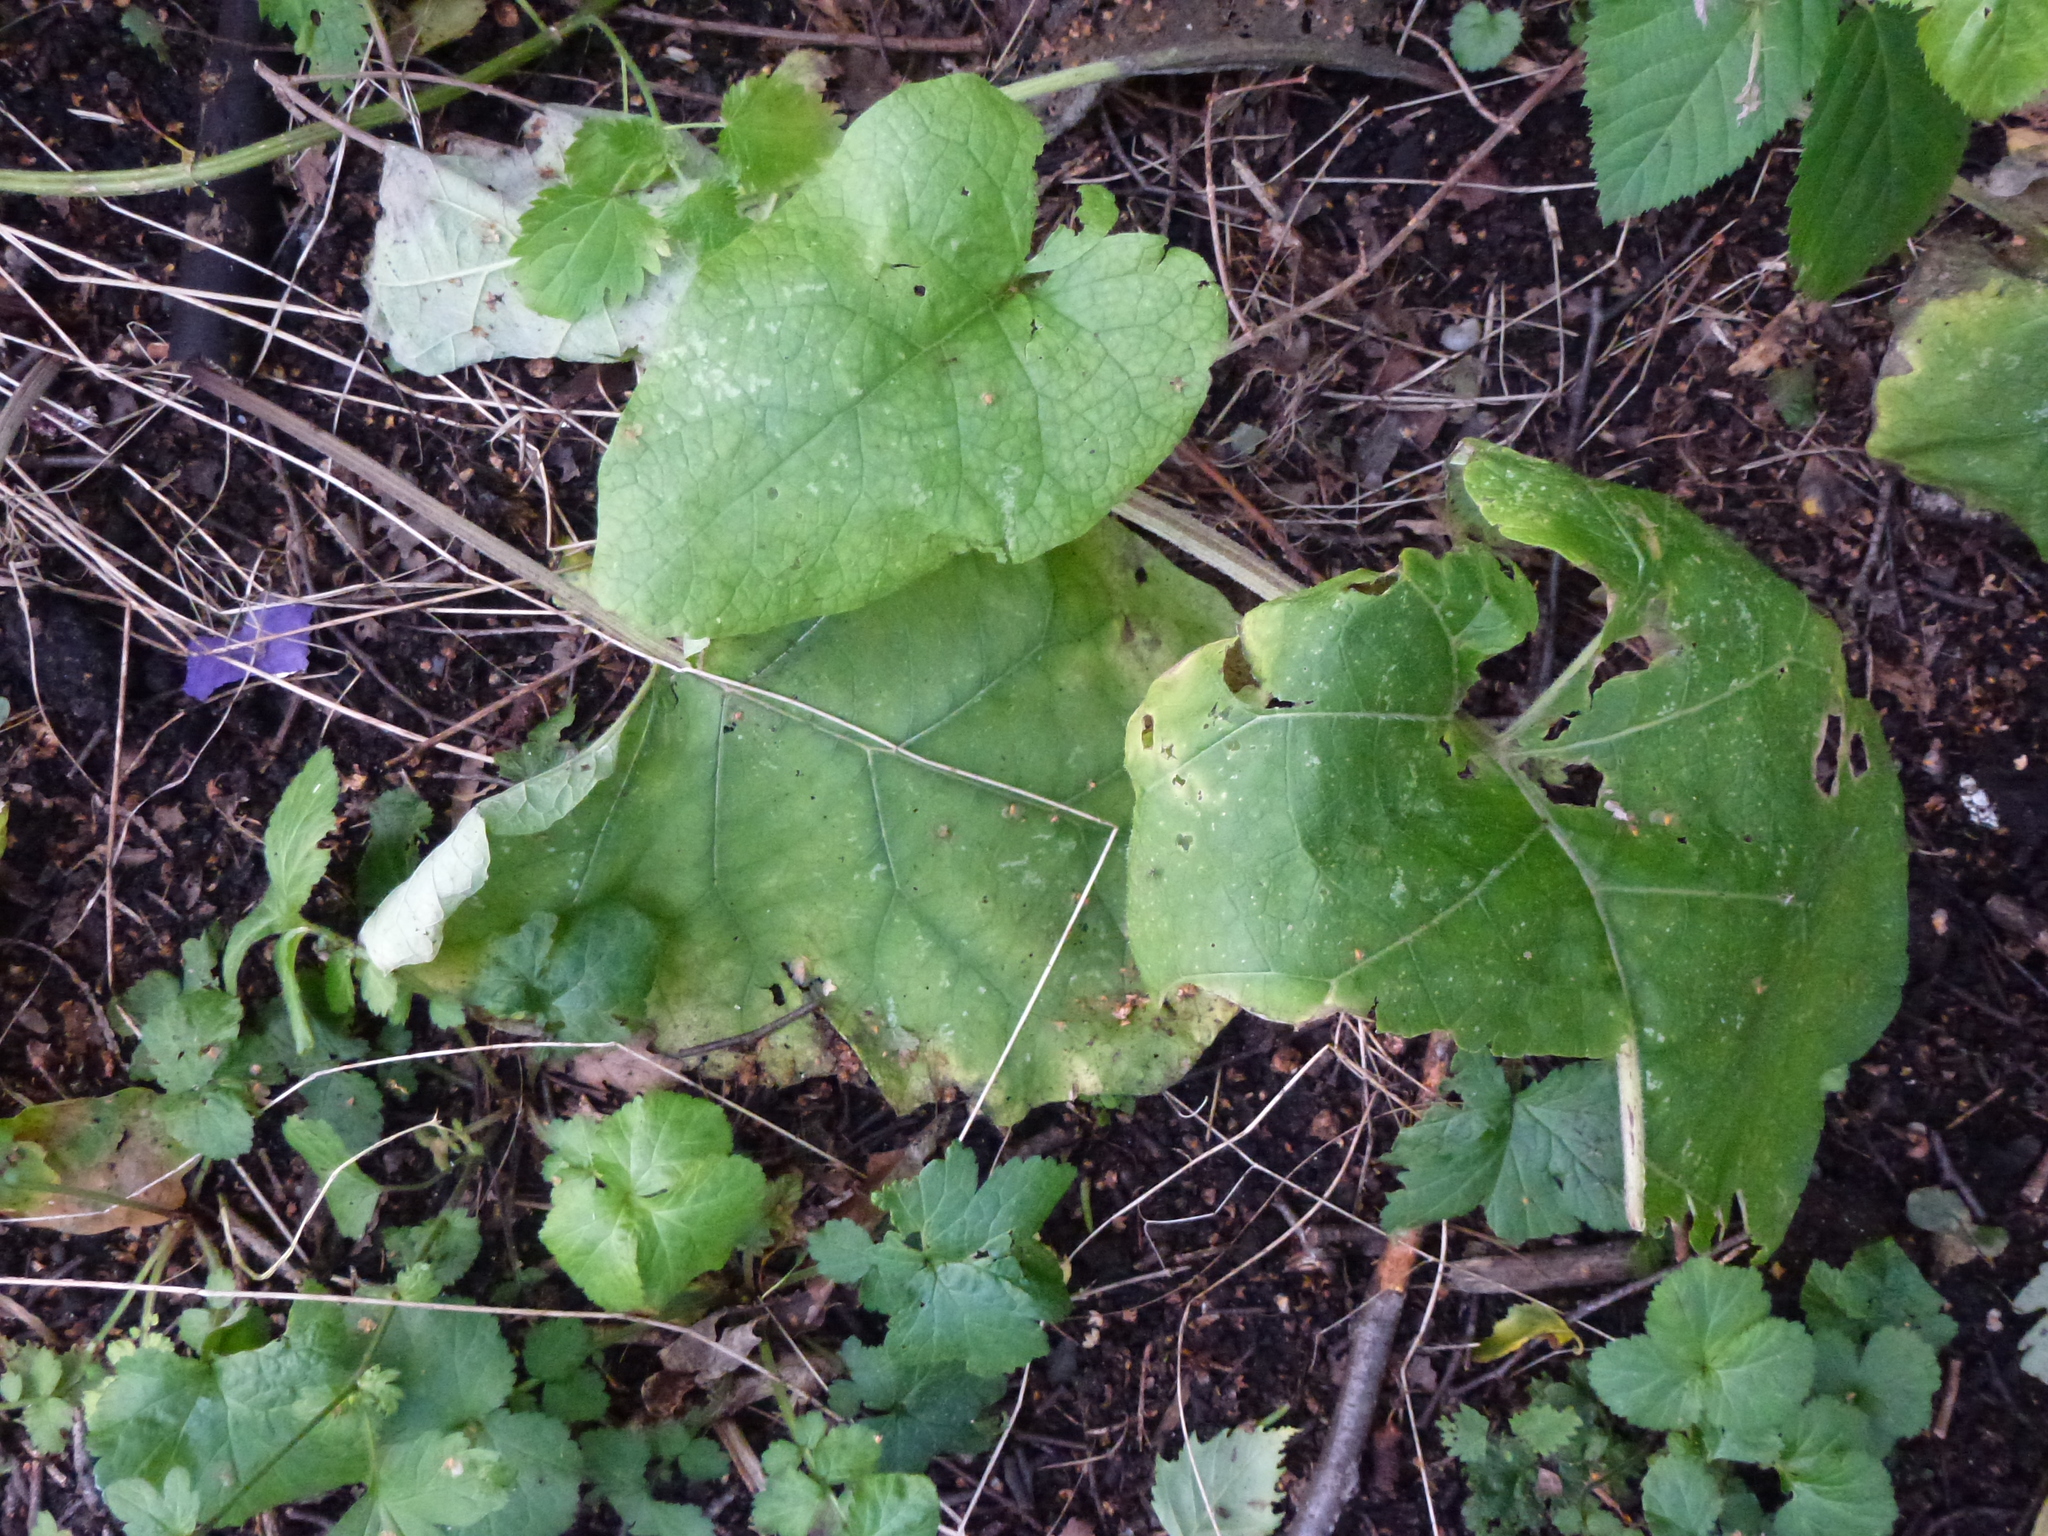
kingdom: Plantae
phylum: Tracheophyta
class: Magnoliopsida
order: Asterales
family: Asteraceae
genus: Arctium
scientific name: Arctium minus
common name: Lesser burdock
